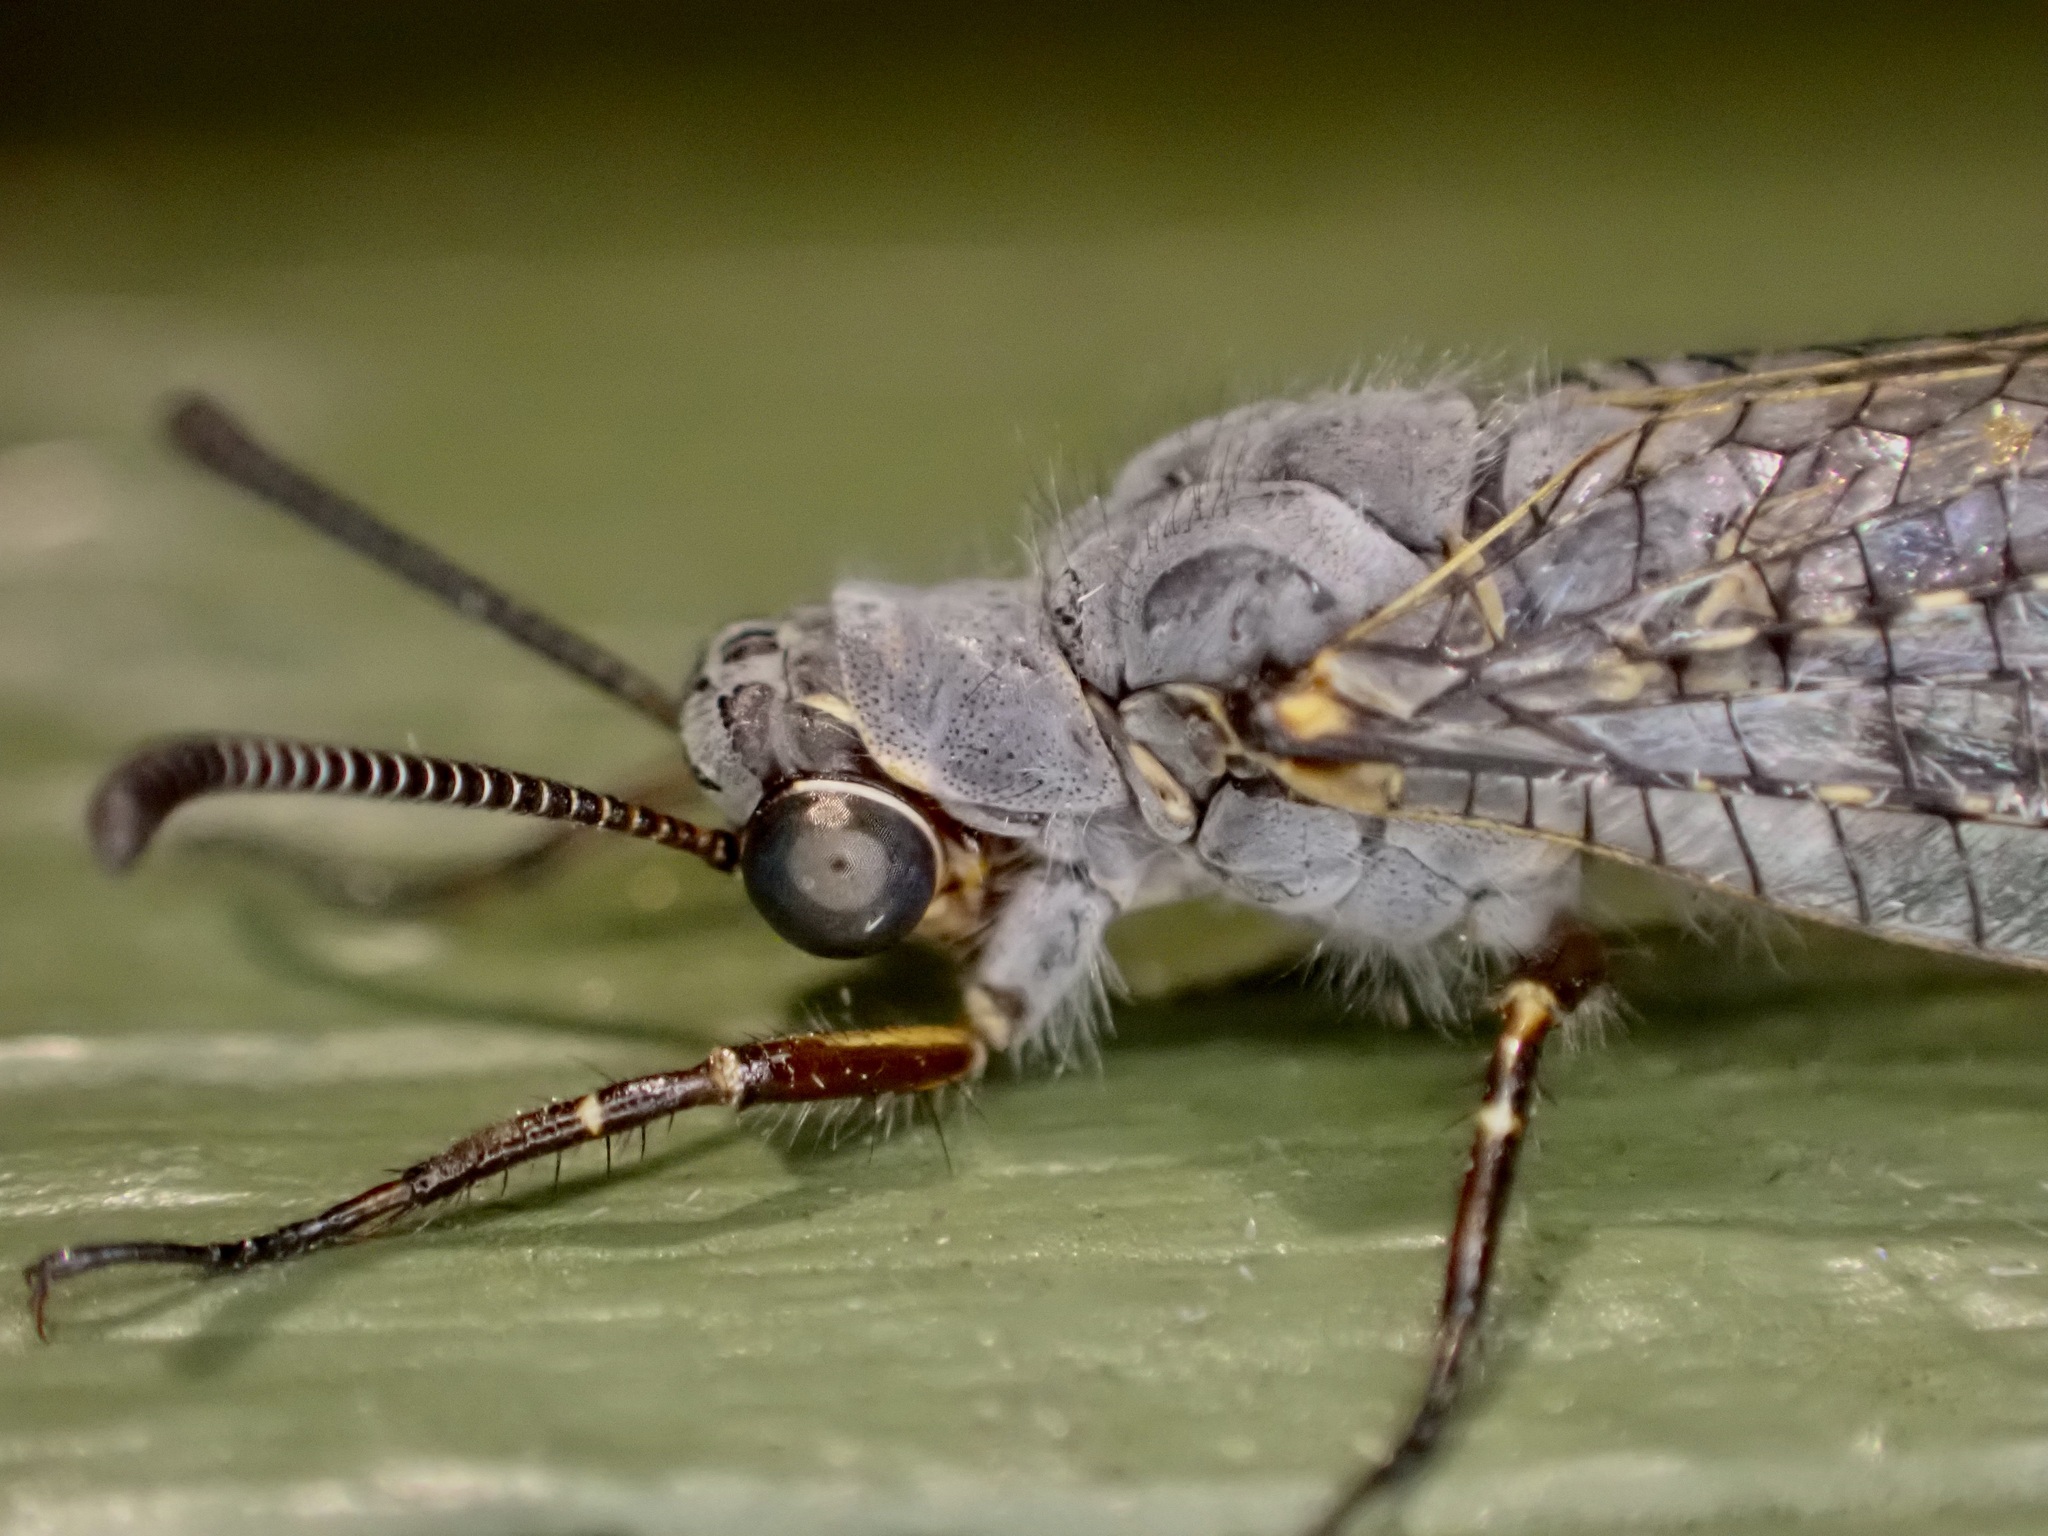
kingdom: Animalia
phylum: Arthropoda
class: Insecta
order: Neuroptera
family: Myrmeleontidae
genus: Weeleus
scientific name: Weeleus acutus
